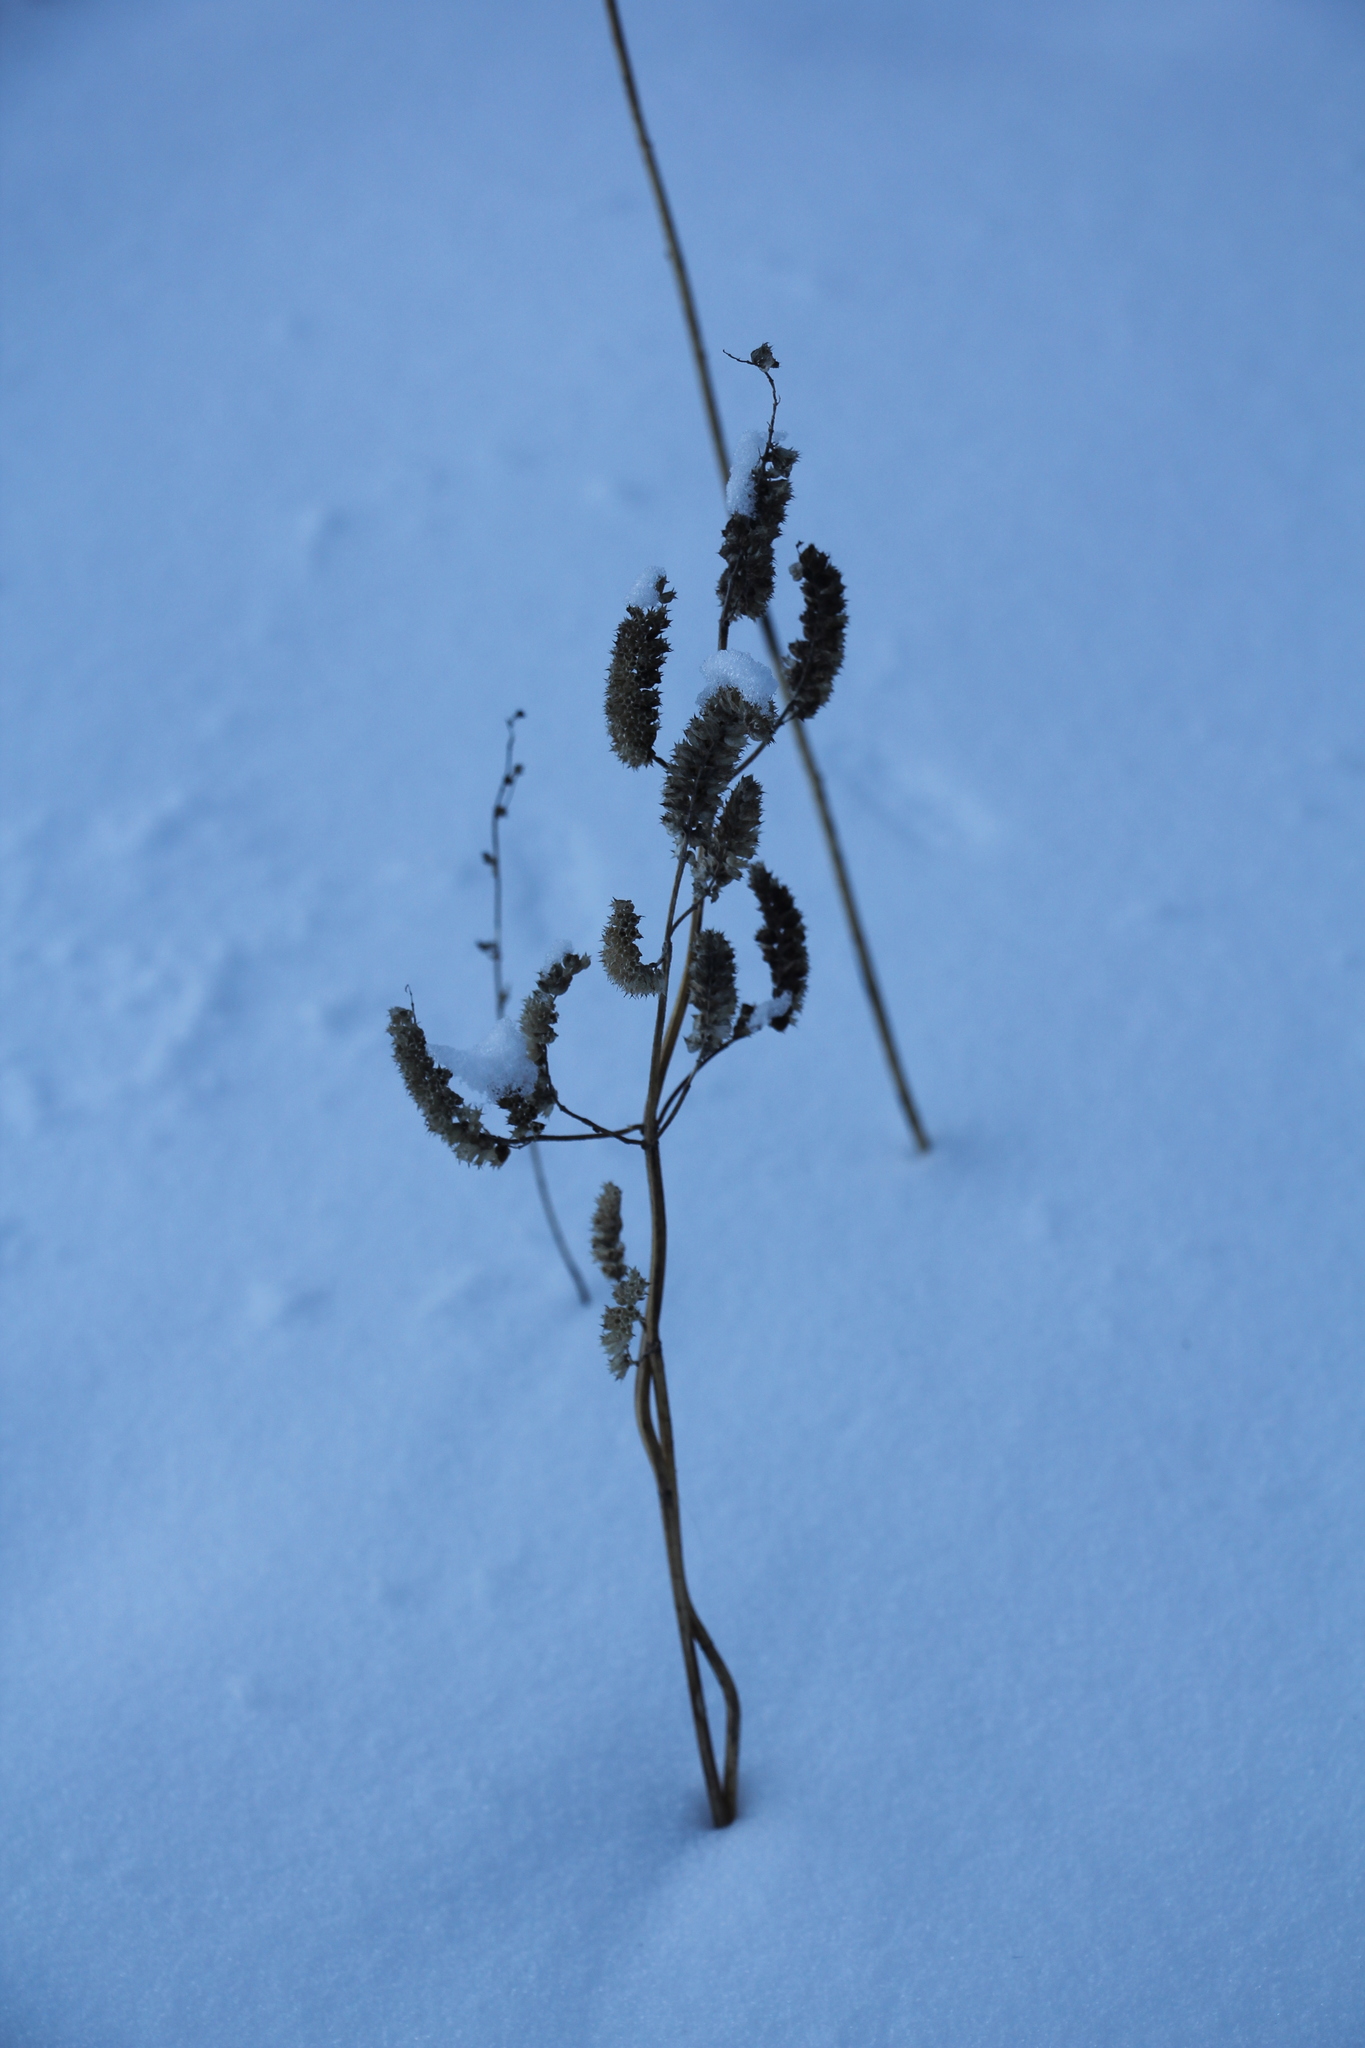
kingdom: Plantae
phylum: Tracheophyta
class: Magnoliopsida
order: Lamiales
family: Lamiaceae
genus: Elsholtzia
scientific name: Elsholtzia ciliata
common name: Ciliate elsholtzia
